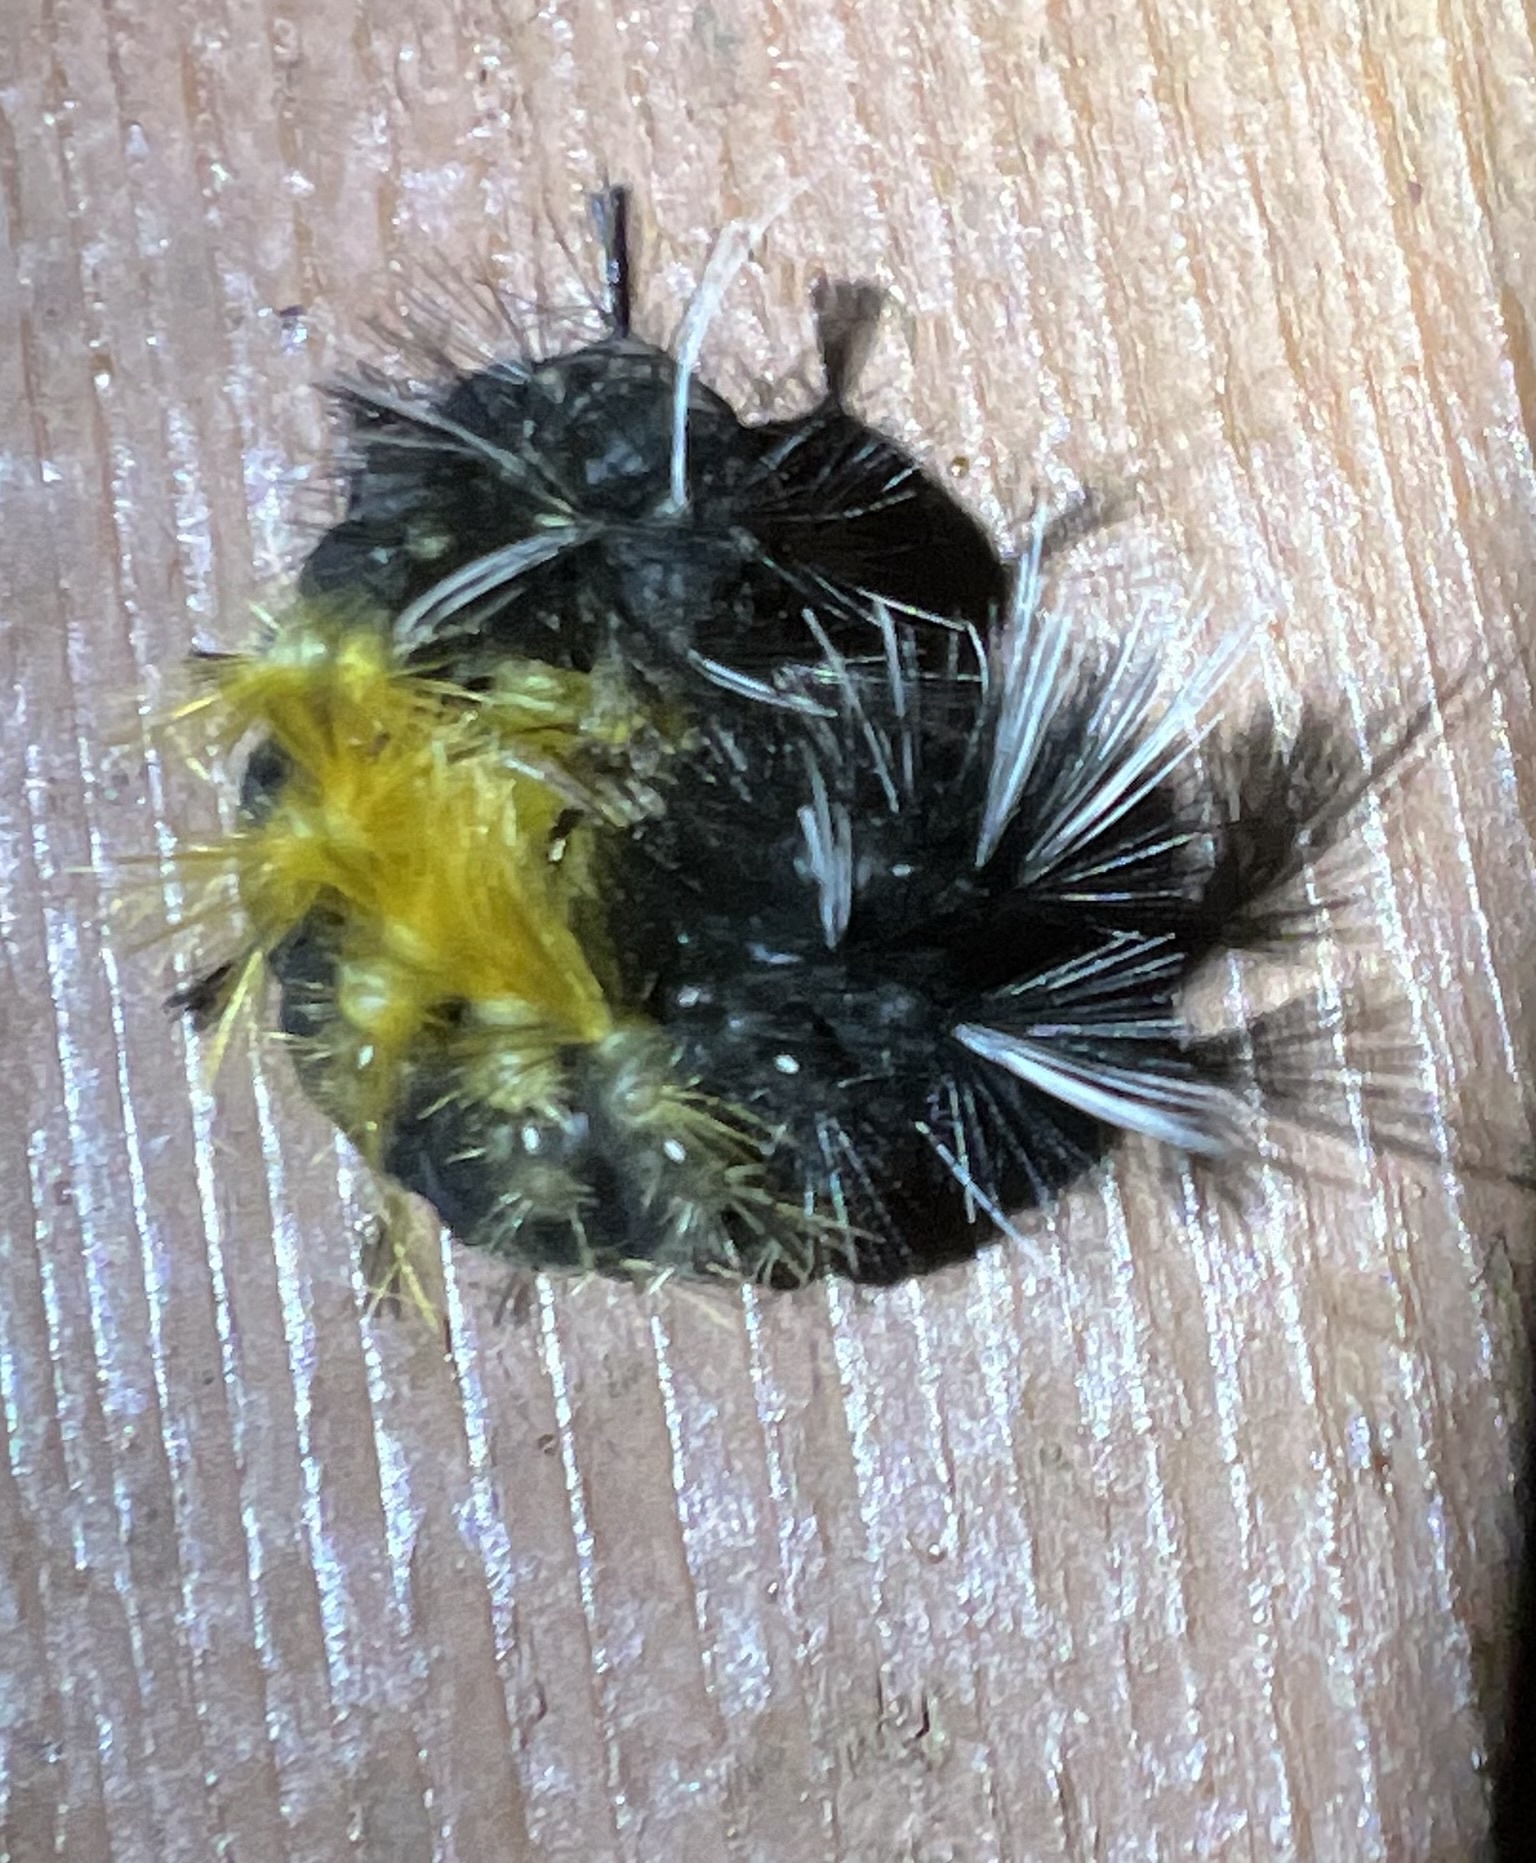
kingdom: Animalia
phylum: Arthropoda
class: Insecta
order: Lepidoptera
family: Erebidae
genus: Lophocampa
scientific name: Lophocampa maculata
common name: Spotted tussock moth
